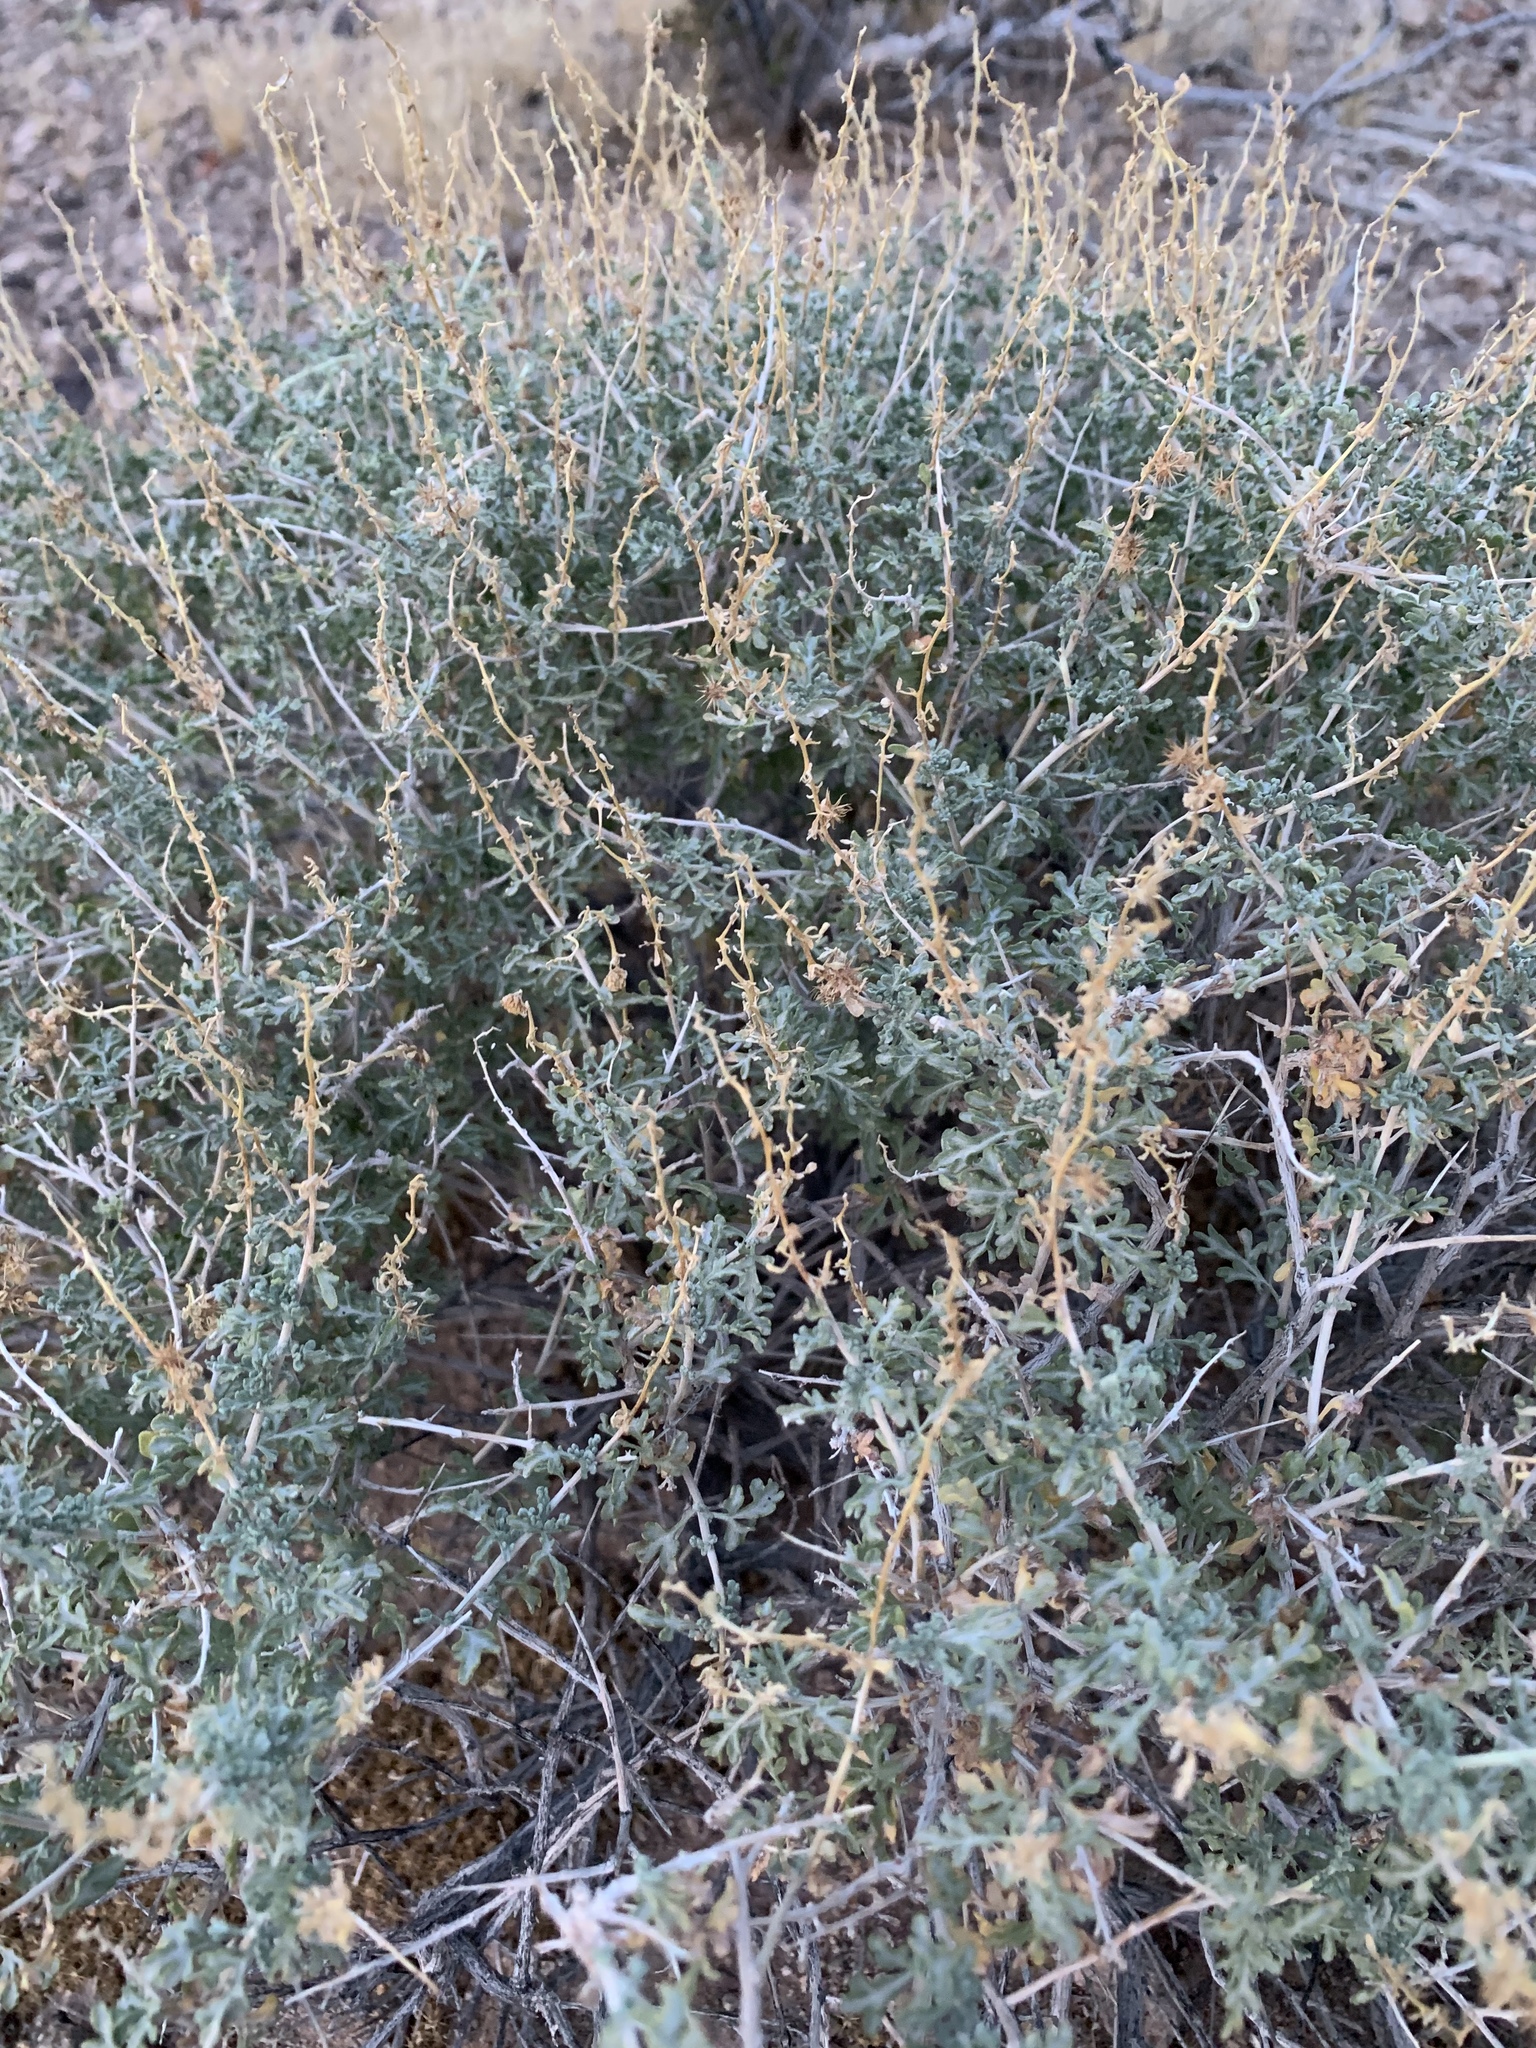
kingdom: Plantae
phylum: Tracheophyta
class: Magnoliopsida
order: Asterales
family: Asteraceae
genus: Ambrosia
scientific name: Ambrosia dumosa
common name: Bur-sage
